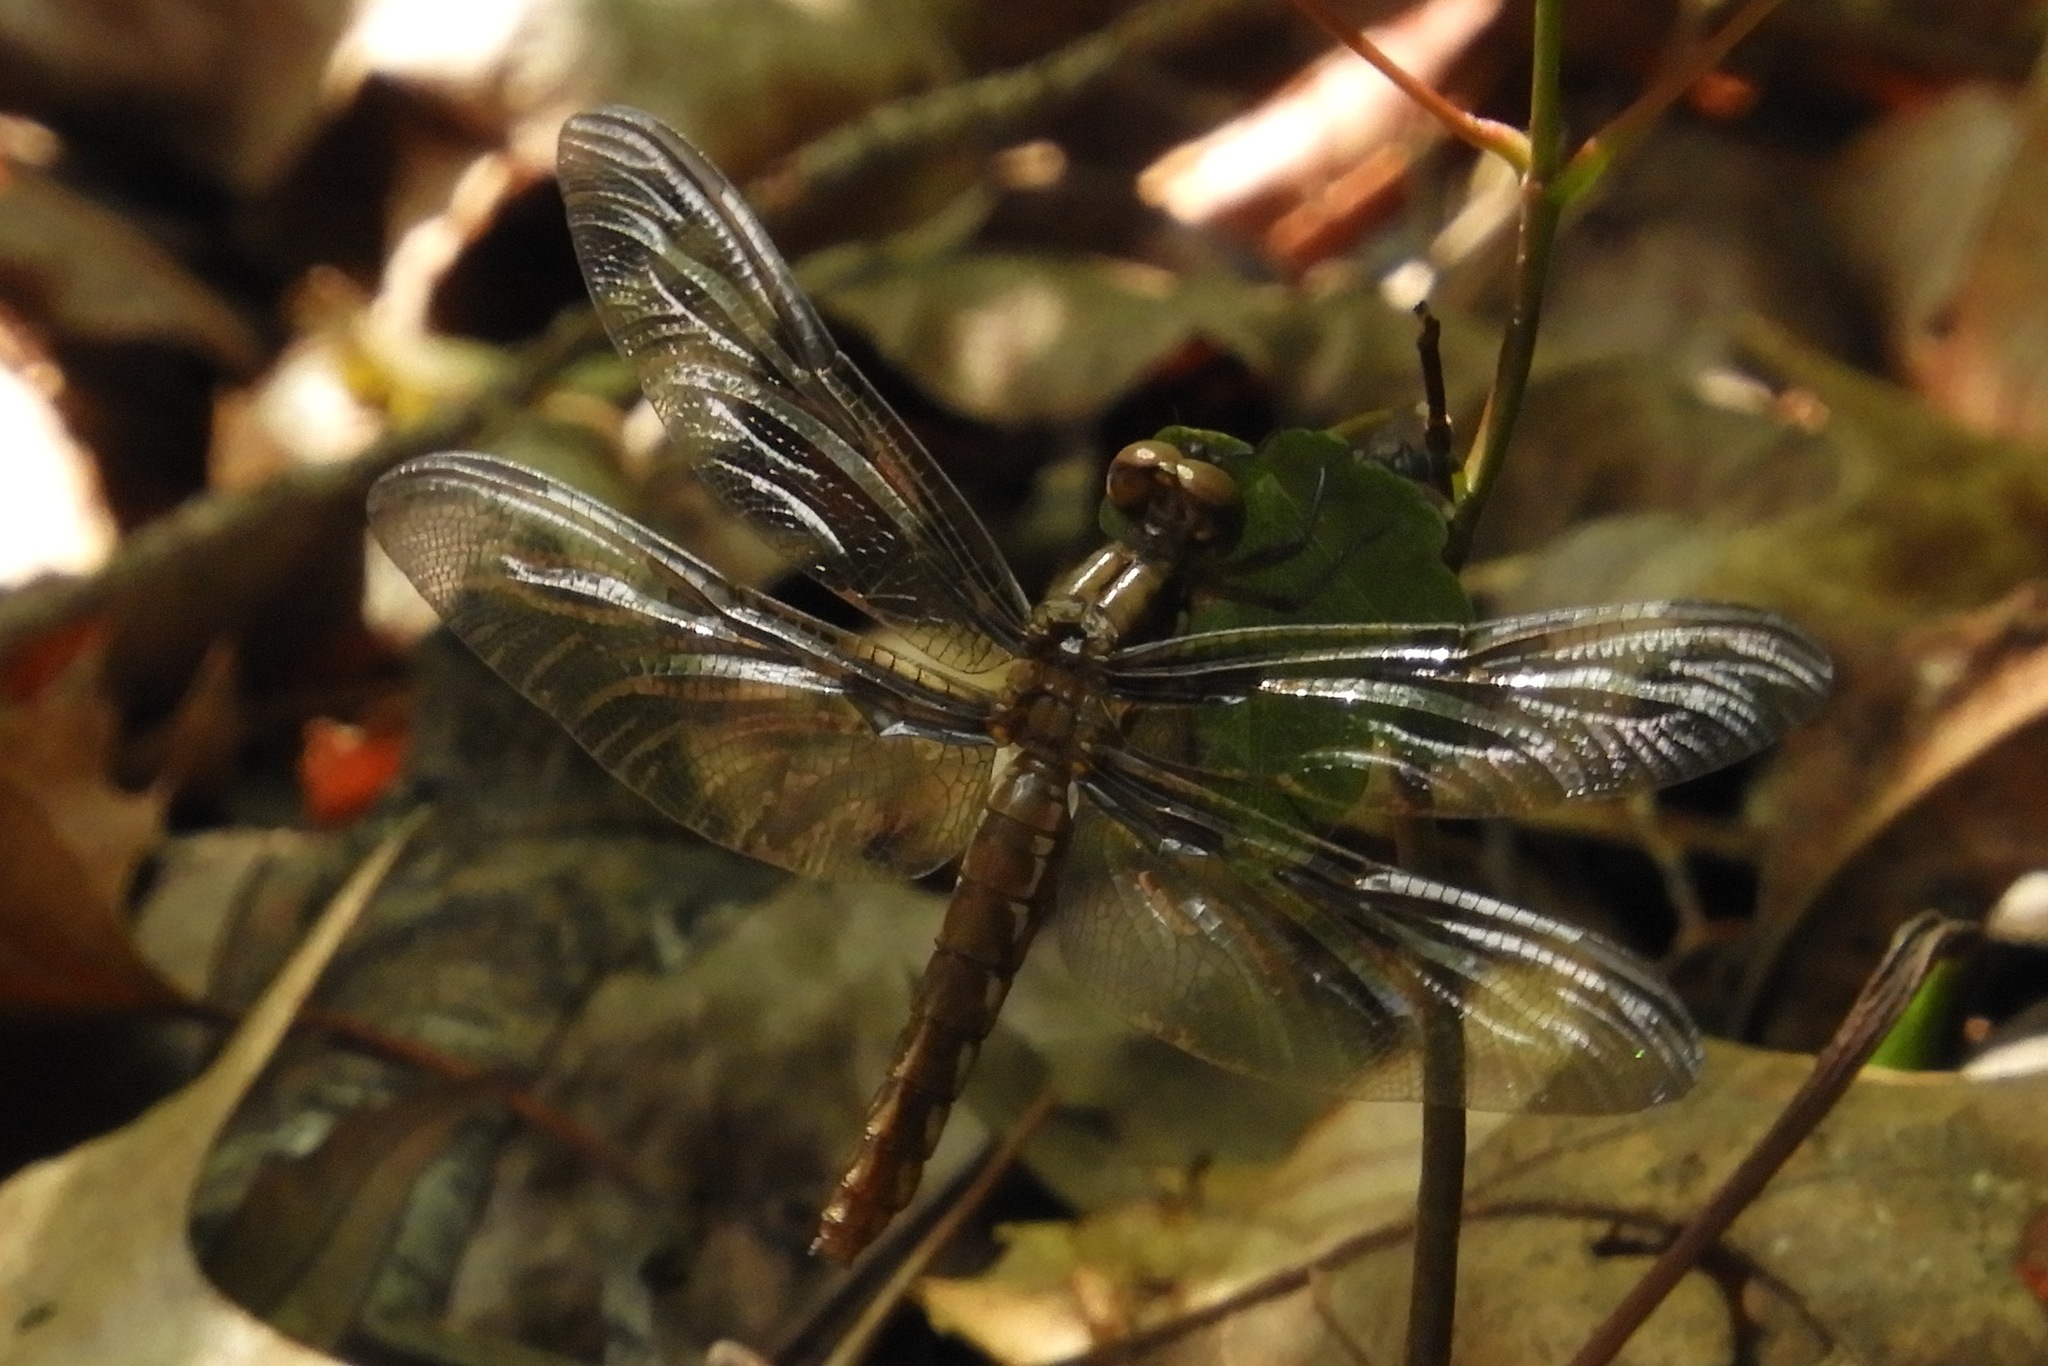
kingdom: Animalia
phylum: Arthropoda
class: Insecta
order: Odonata
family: Libellulidae
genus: Plathemis
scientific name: Plathemis lydia
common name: Common whitetail
